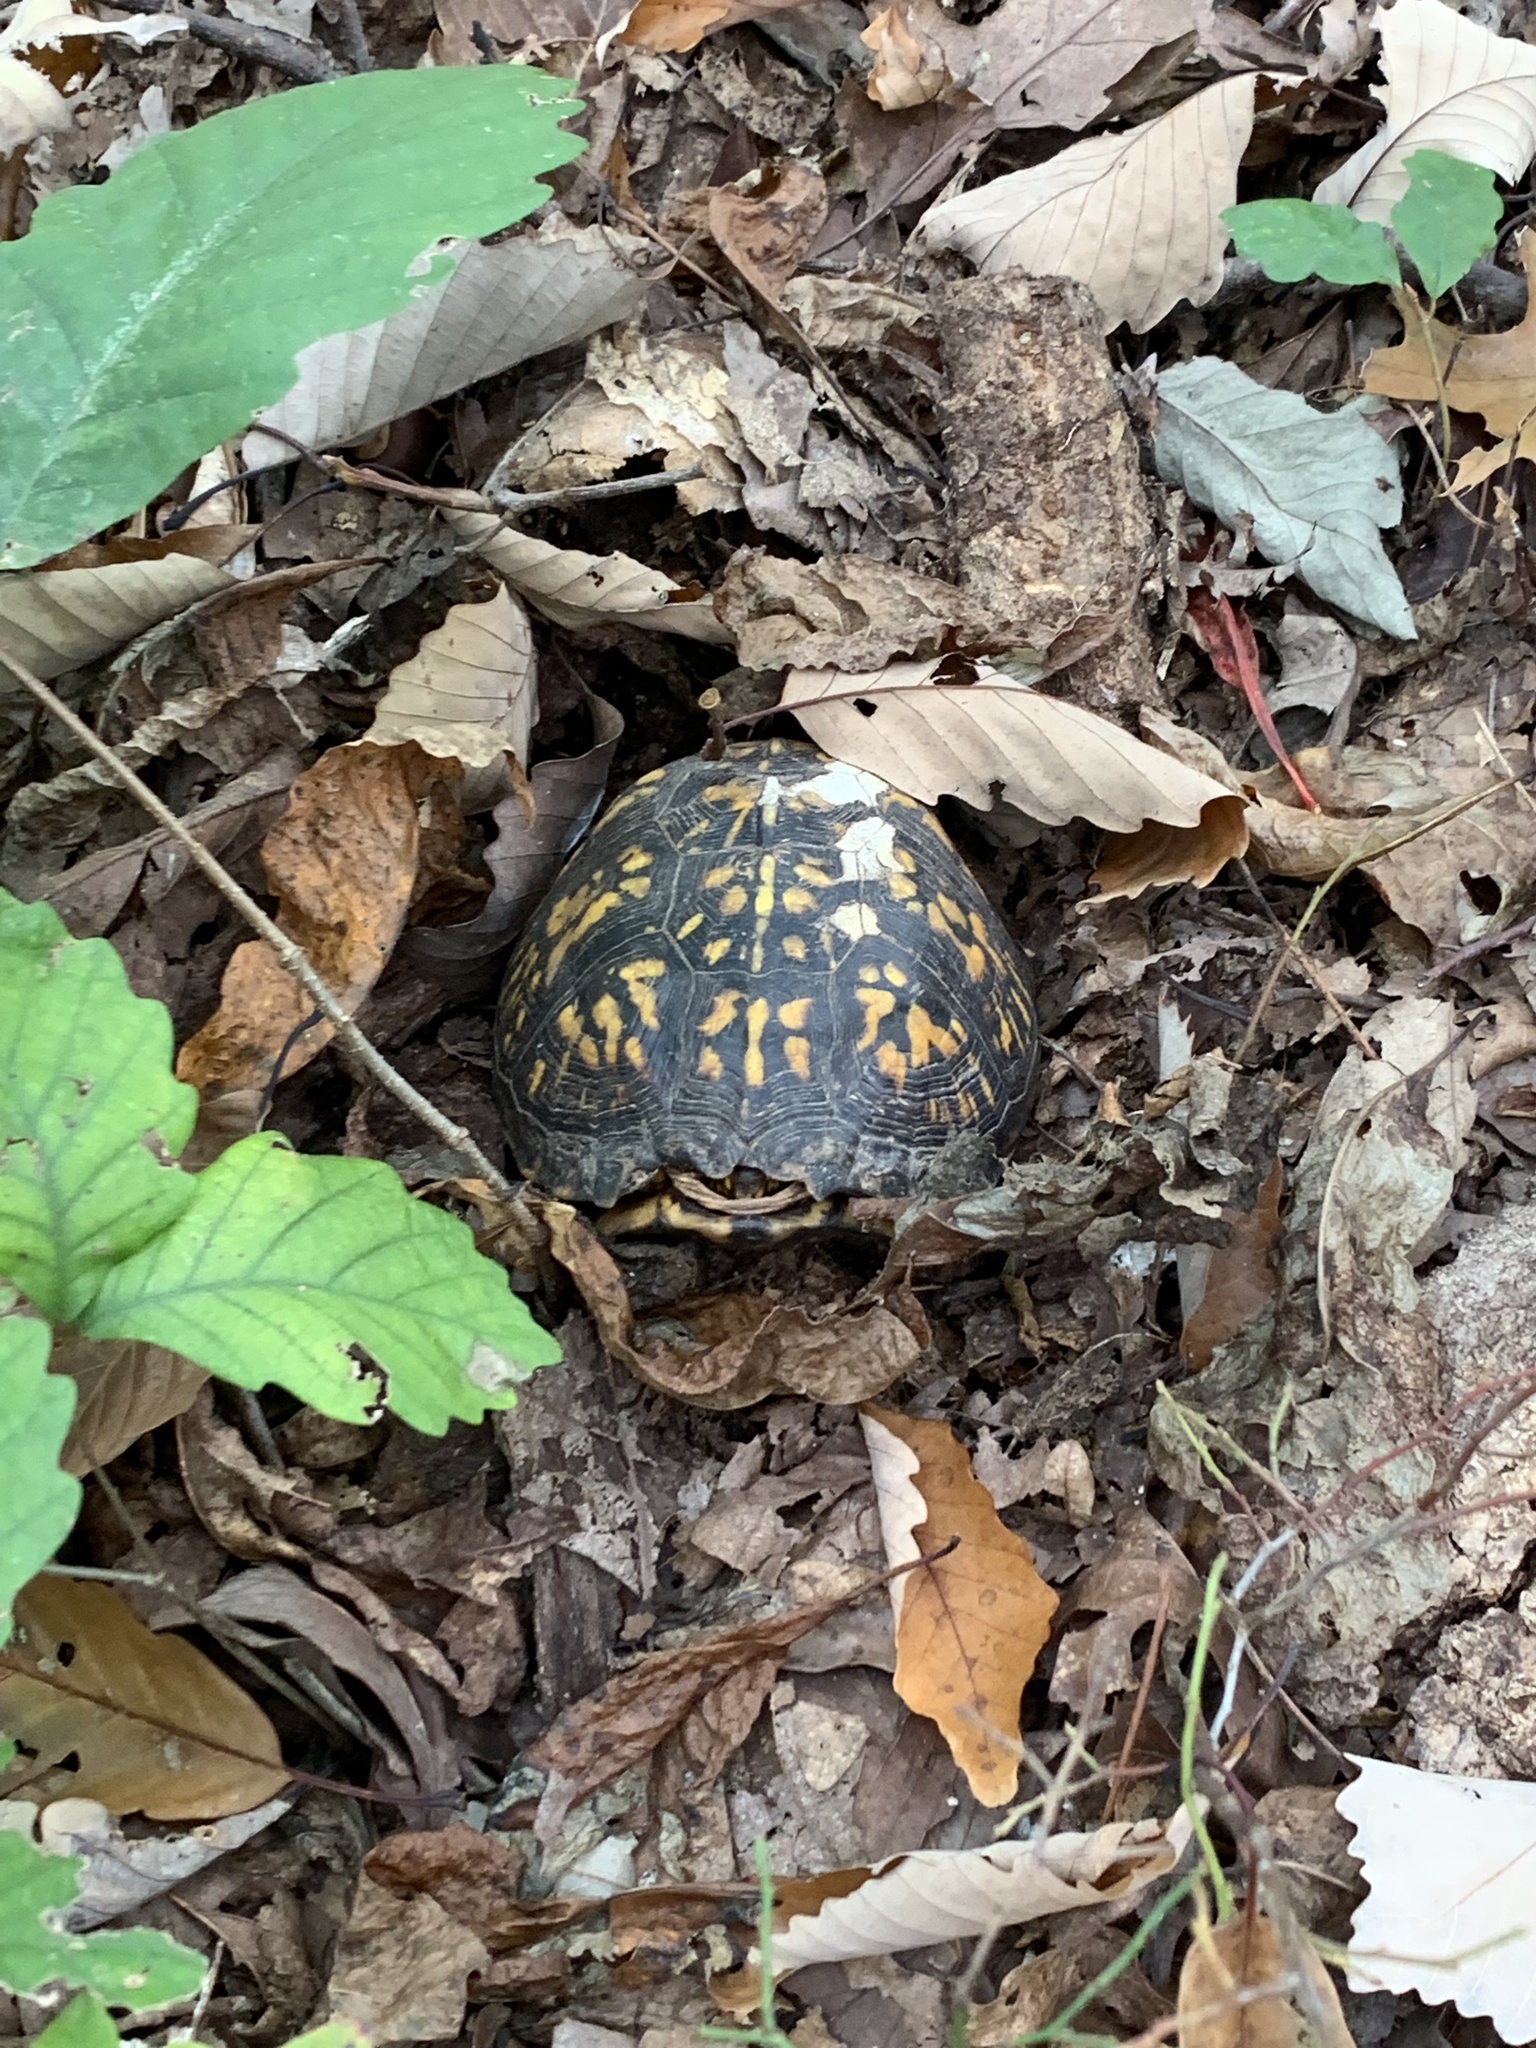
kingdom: Animalia
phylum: Chordata
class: Testudines
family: Emydidae
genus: Terrapene
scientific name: Terrapene carolina
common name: Common box turtle
